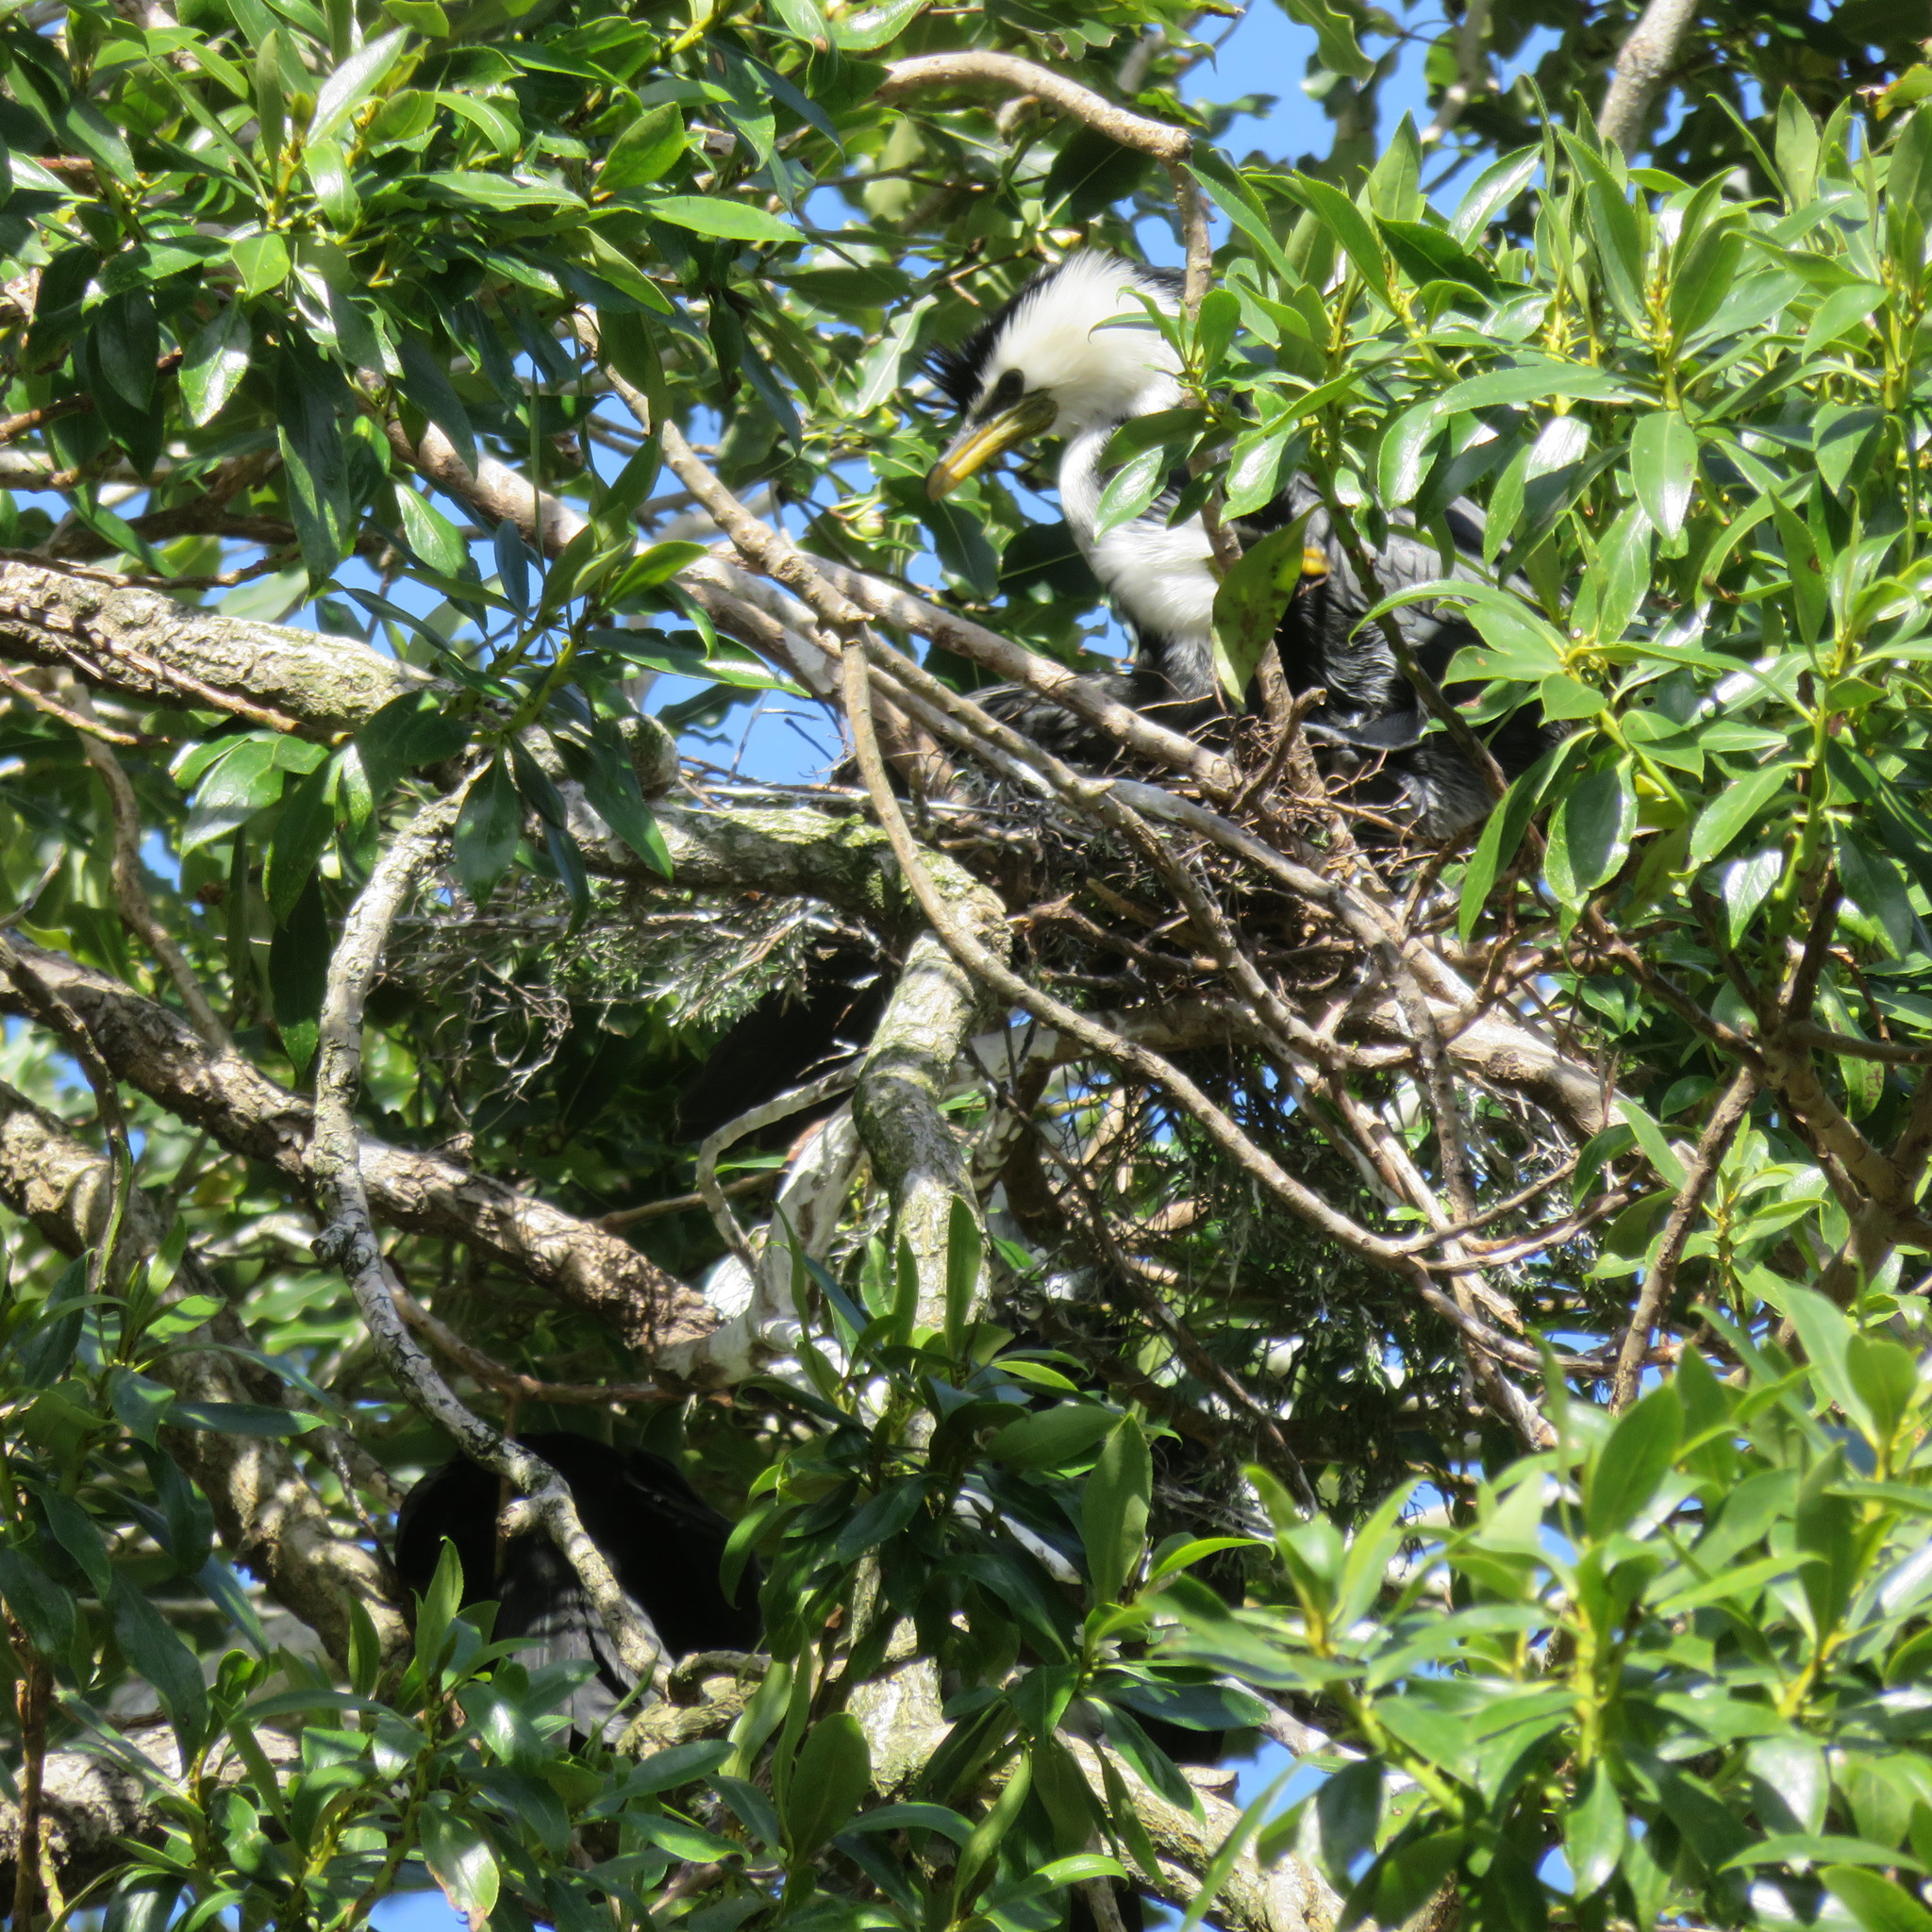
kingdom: Animalia
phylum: Chordata
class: Aves
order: Suliformes
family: Phalacrocoracidae
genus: Microcarbo
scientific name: Microcarbo melanoleucos
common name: Little pied cormorant
